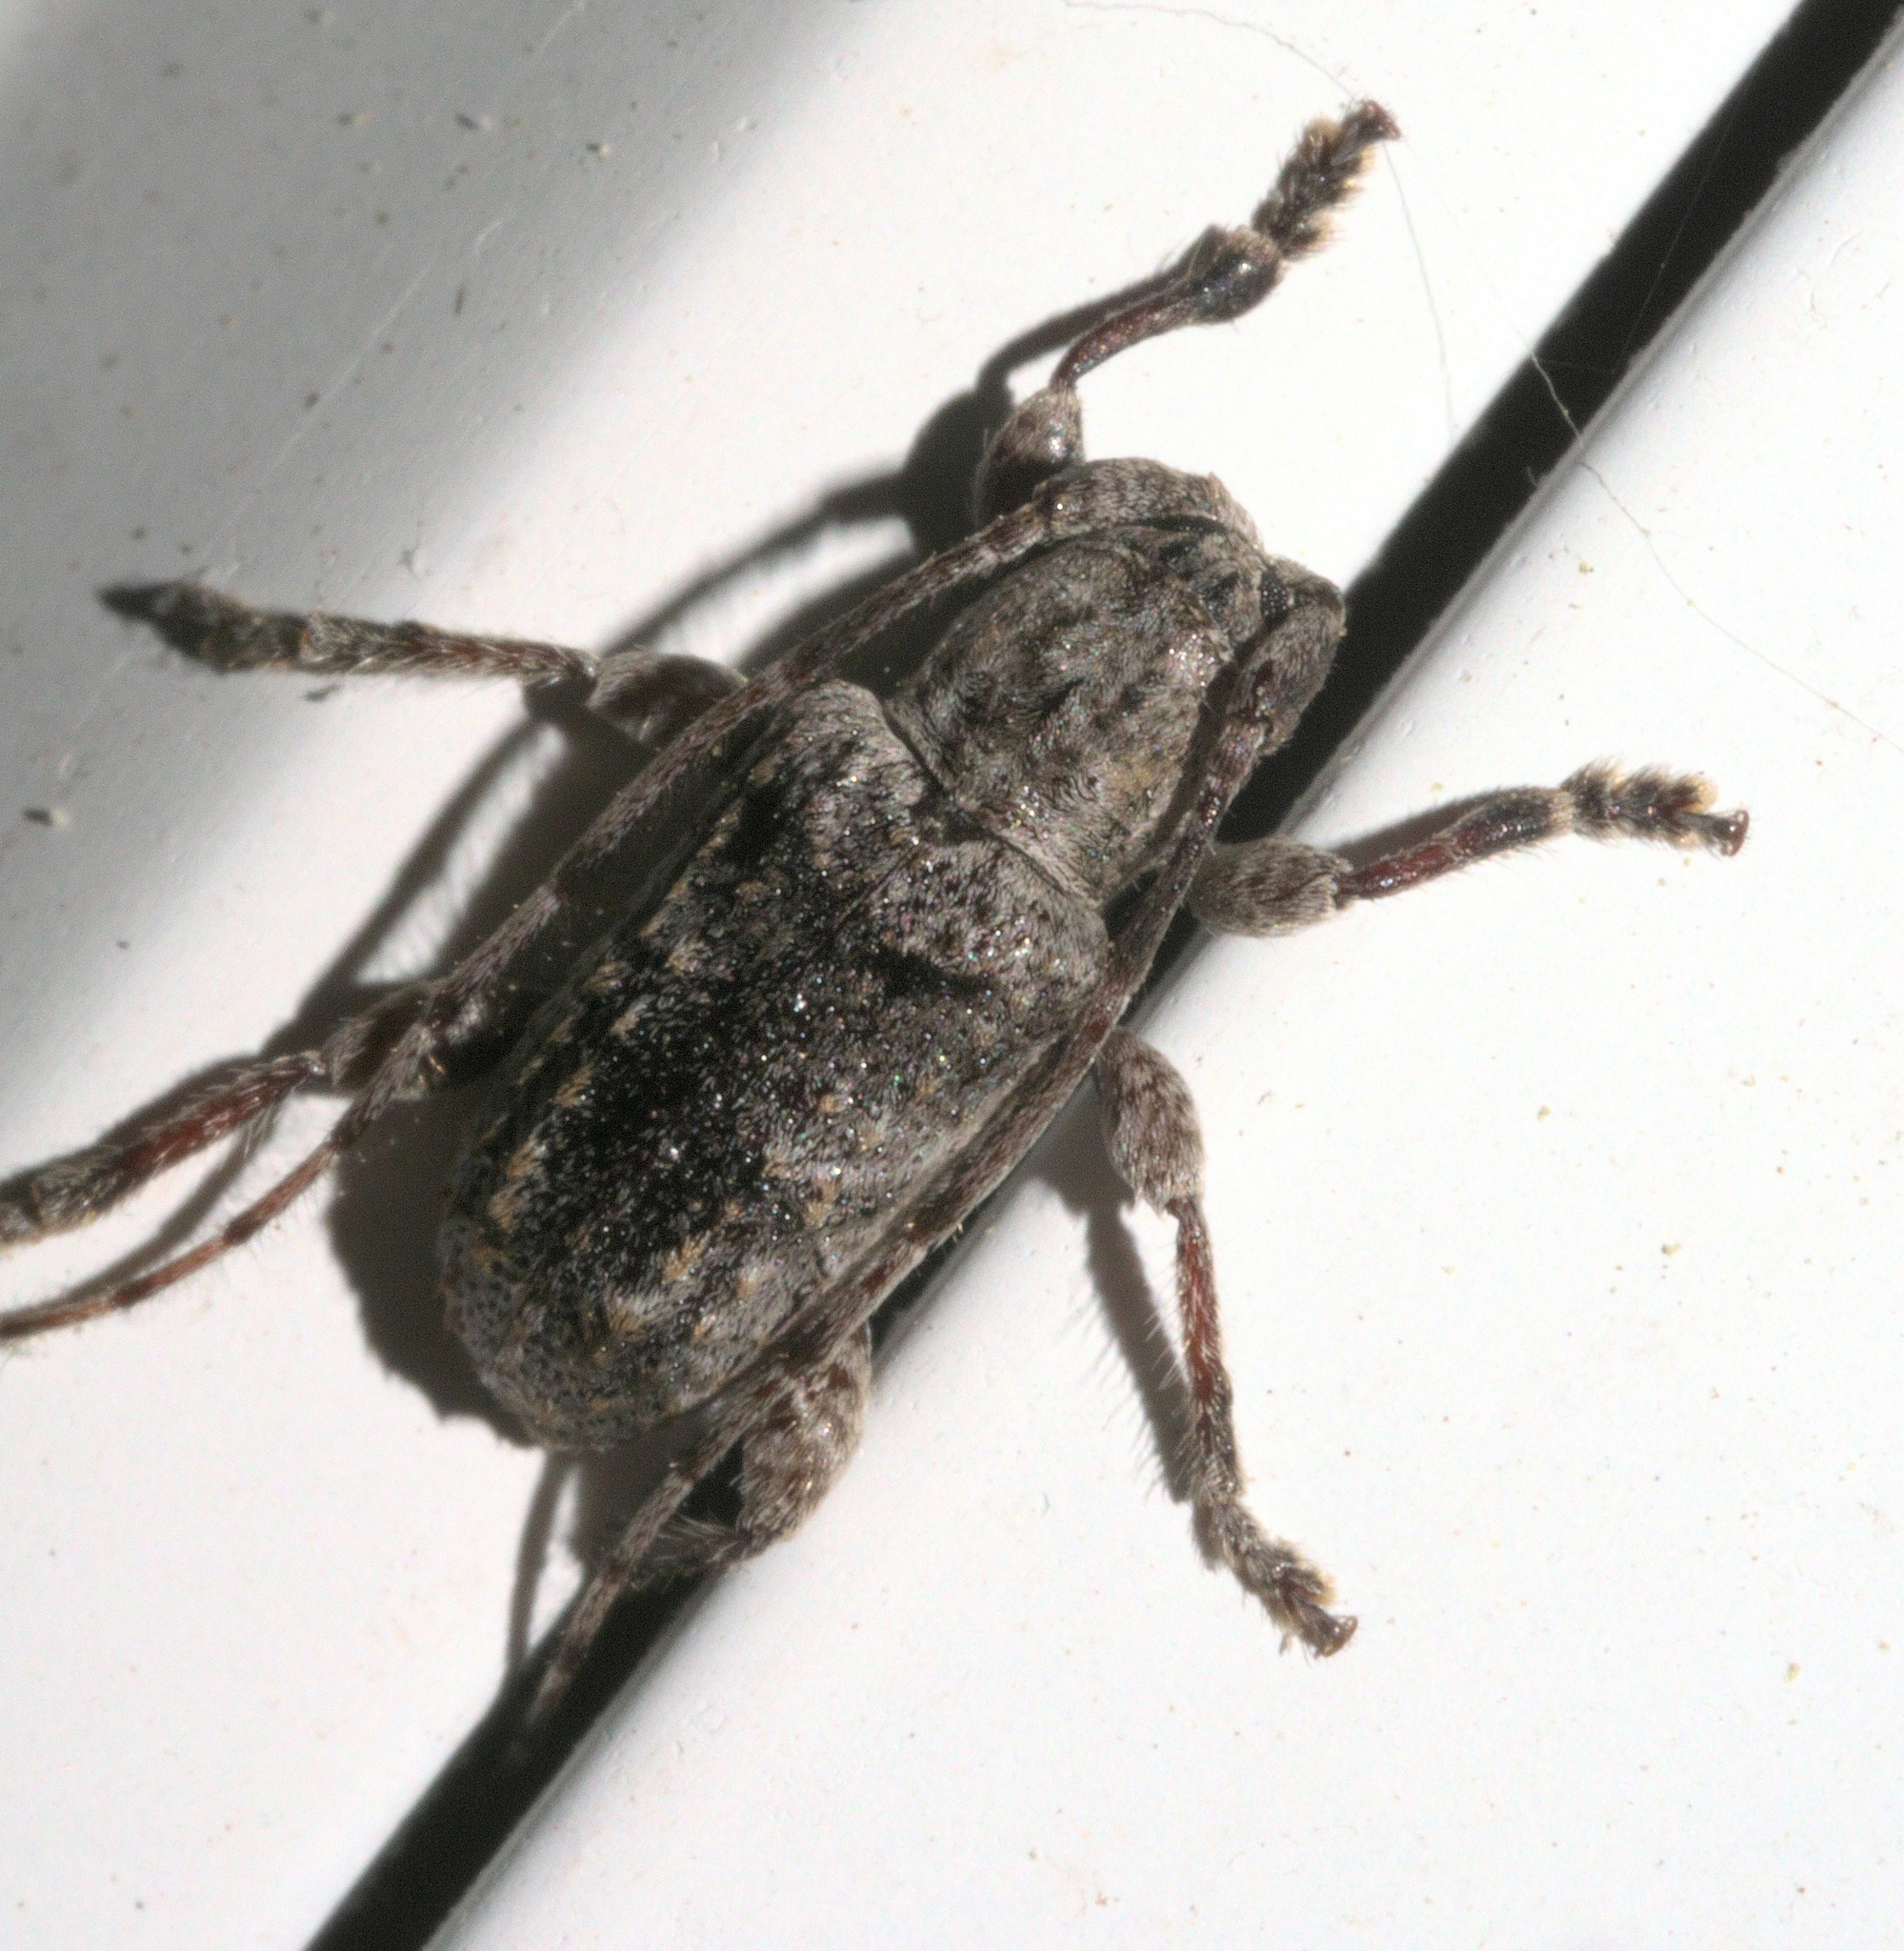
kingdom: Animalia
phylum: Arthropoda
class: Insecta
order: Coleoptera
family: Cerambycidae
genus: Ecyrus
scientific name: Ecyrus dasycerus
